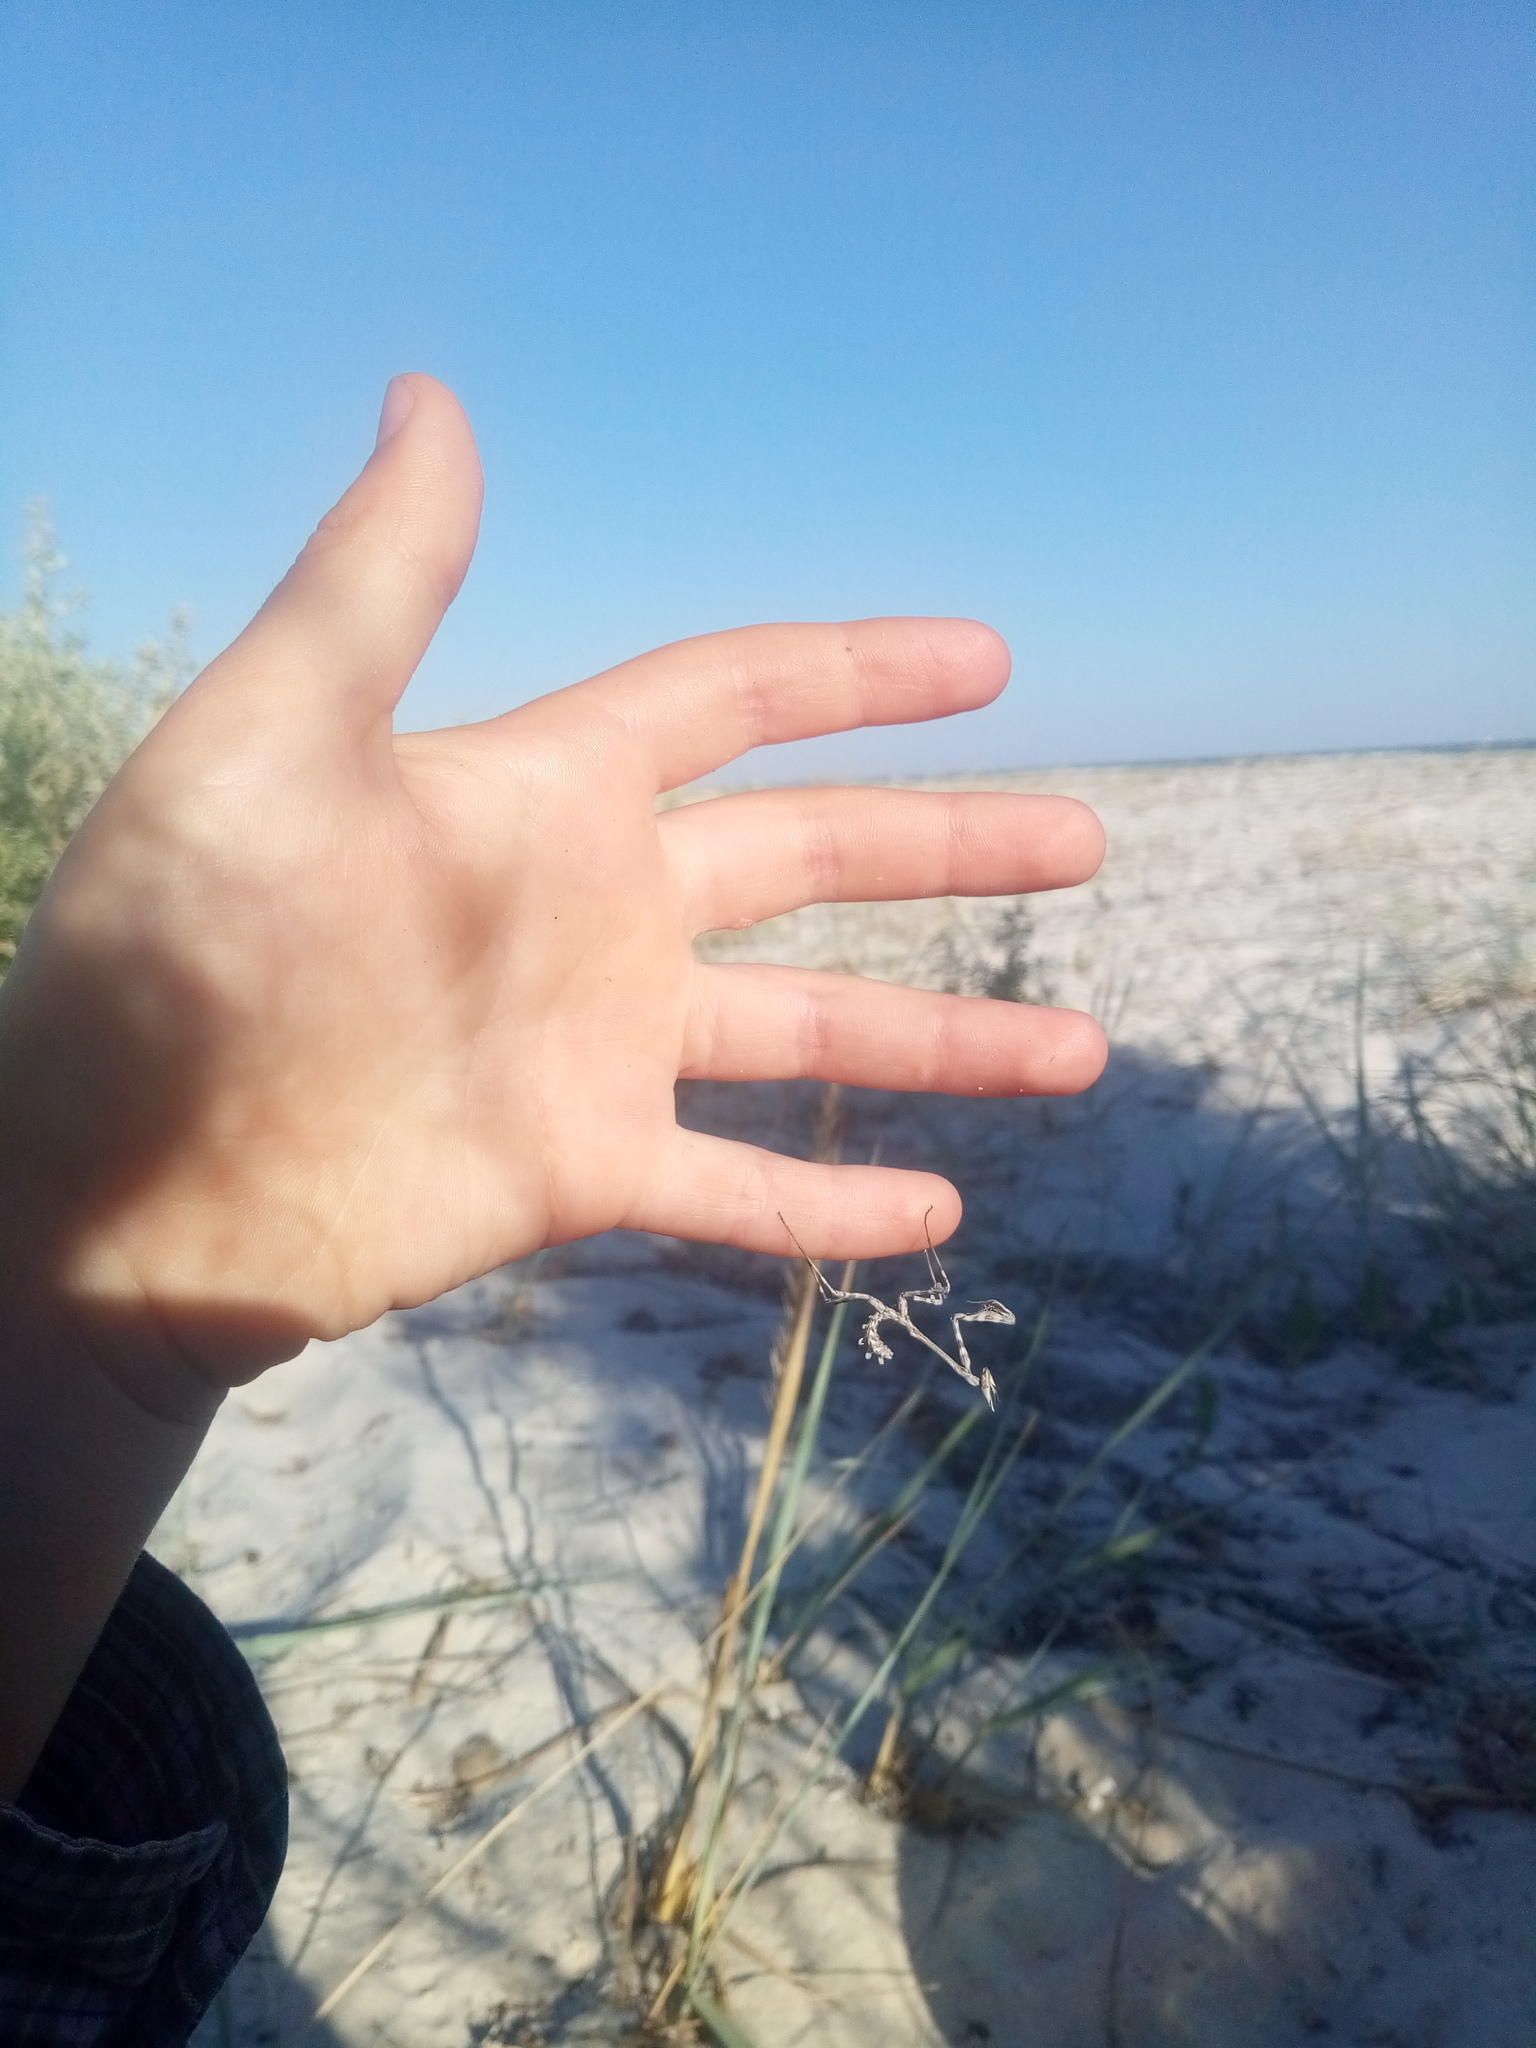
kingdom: Animalia
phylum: Arthropoda
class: Insecta
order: Mantodea
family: Empusidae
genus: Empusa
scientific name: Empusa fasciata
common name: Devil's mare
